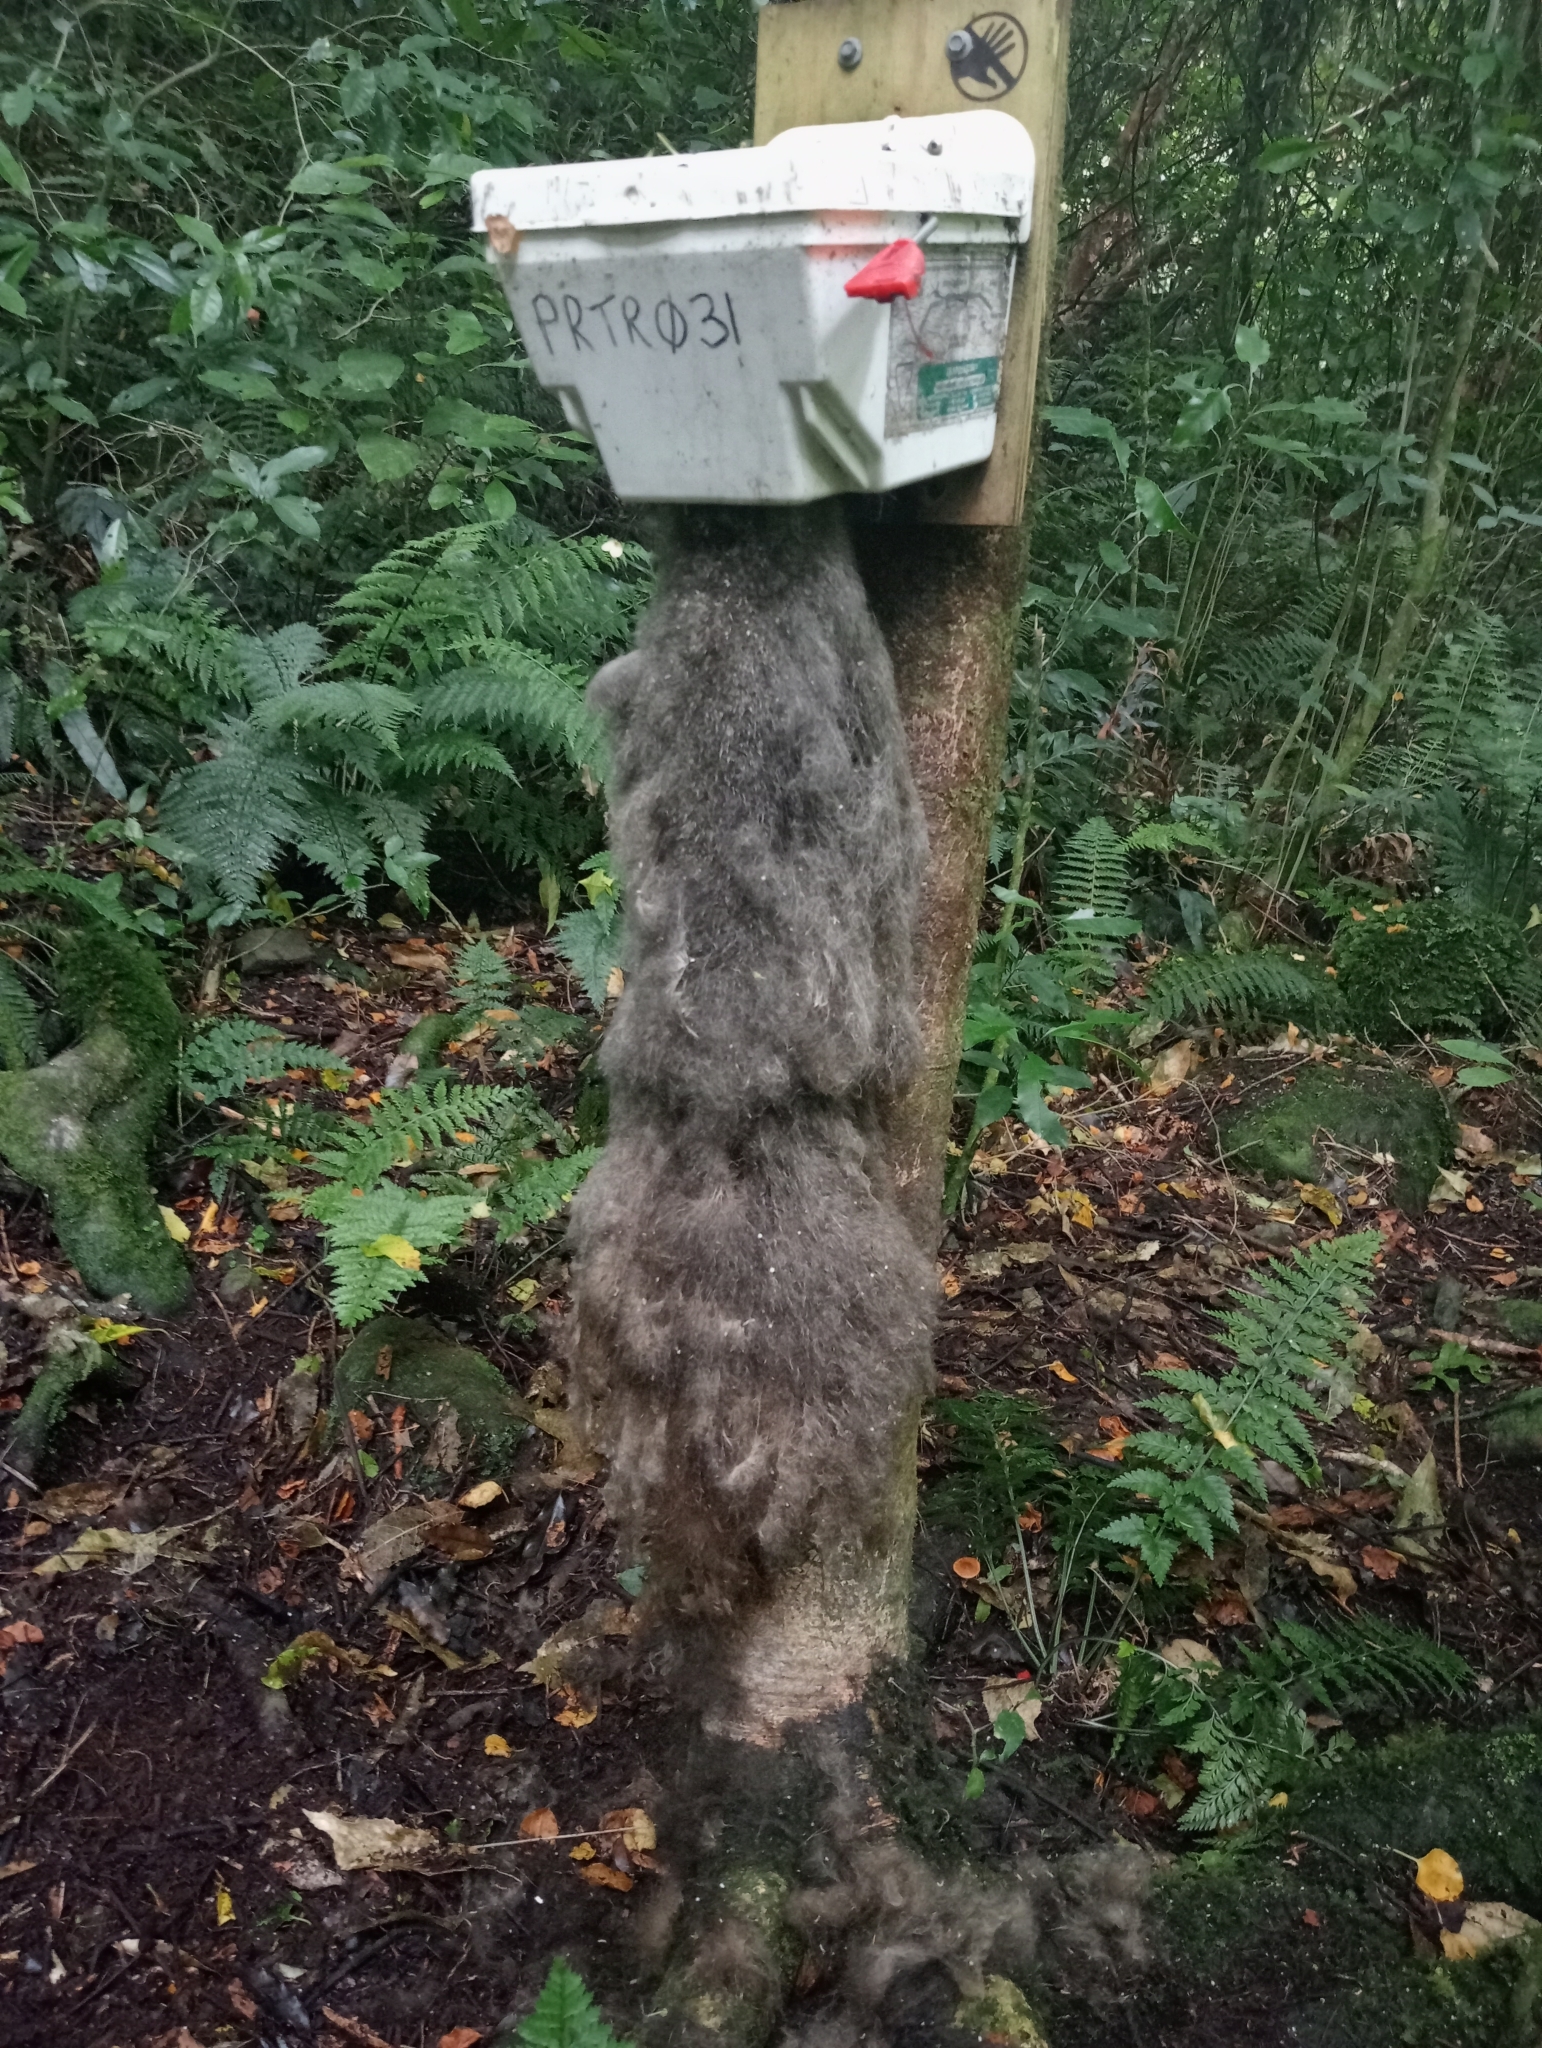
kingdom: Animalia
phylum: Chordata
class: Mammalia
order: Diprotodontia
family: Phalangeridae
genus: Trichosurus
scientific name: Trichosurus vulpecula
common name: Common brushtail
